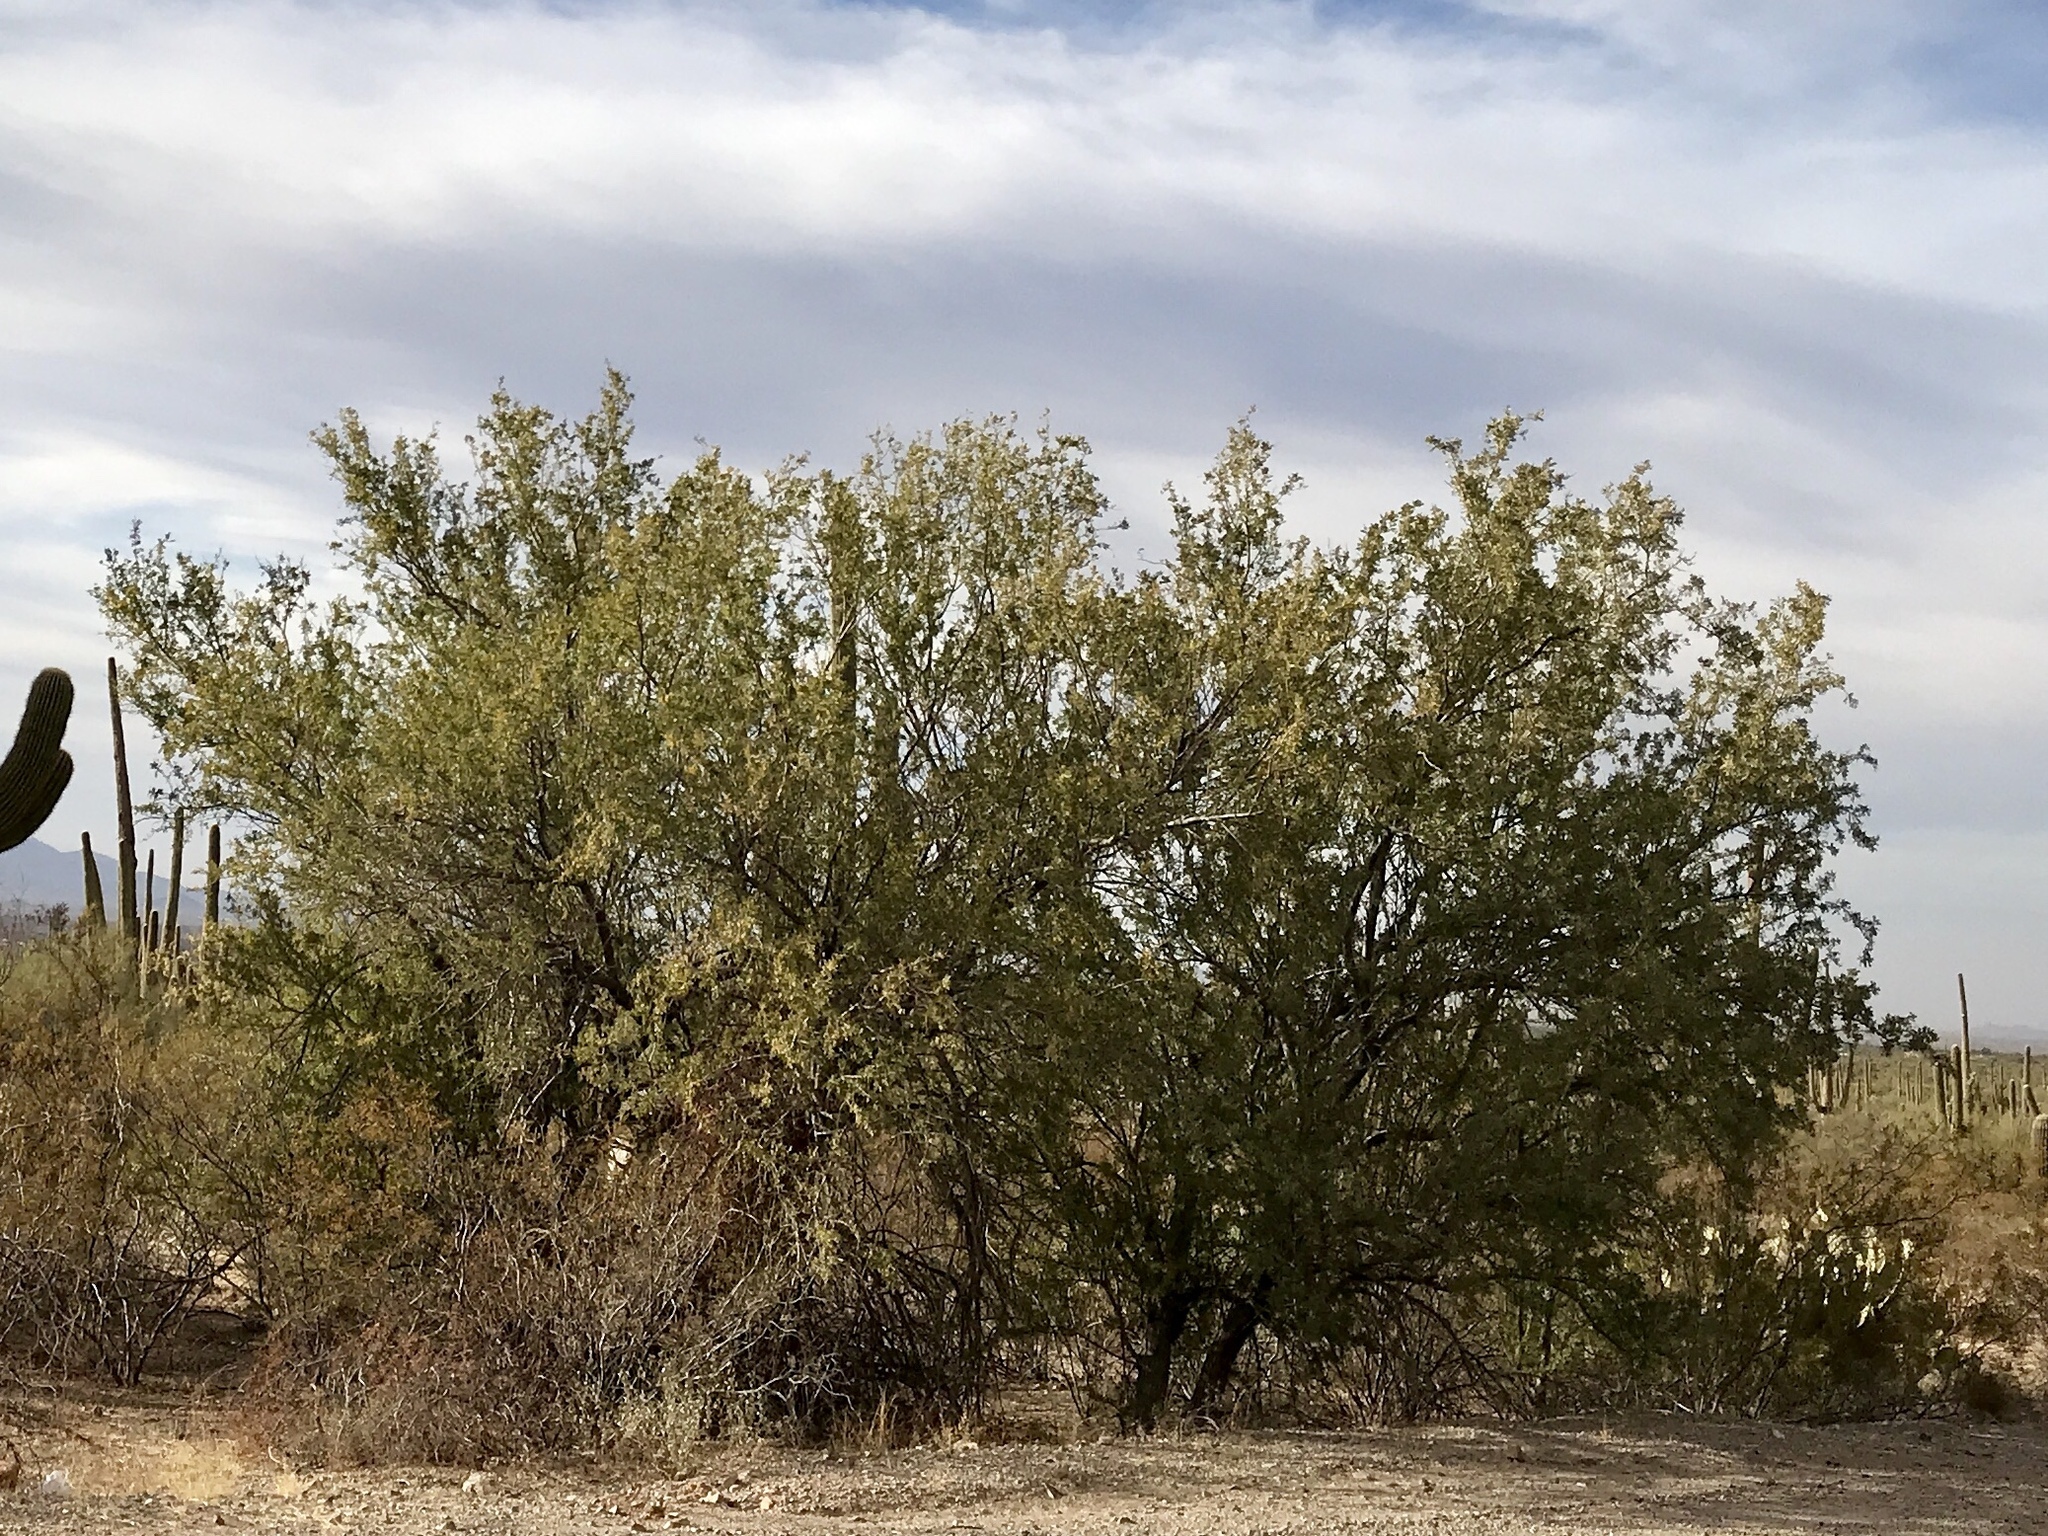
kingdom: Plantae
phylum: Tracheophyta
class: Magnoliopsida
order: Fabales
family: Fabaceae
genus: Olneya
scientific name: Olneya tesota
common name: Desert ironwood
